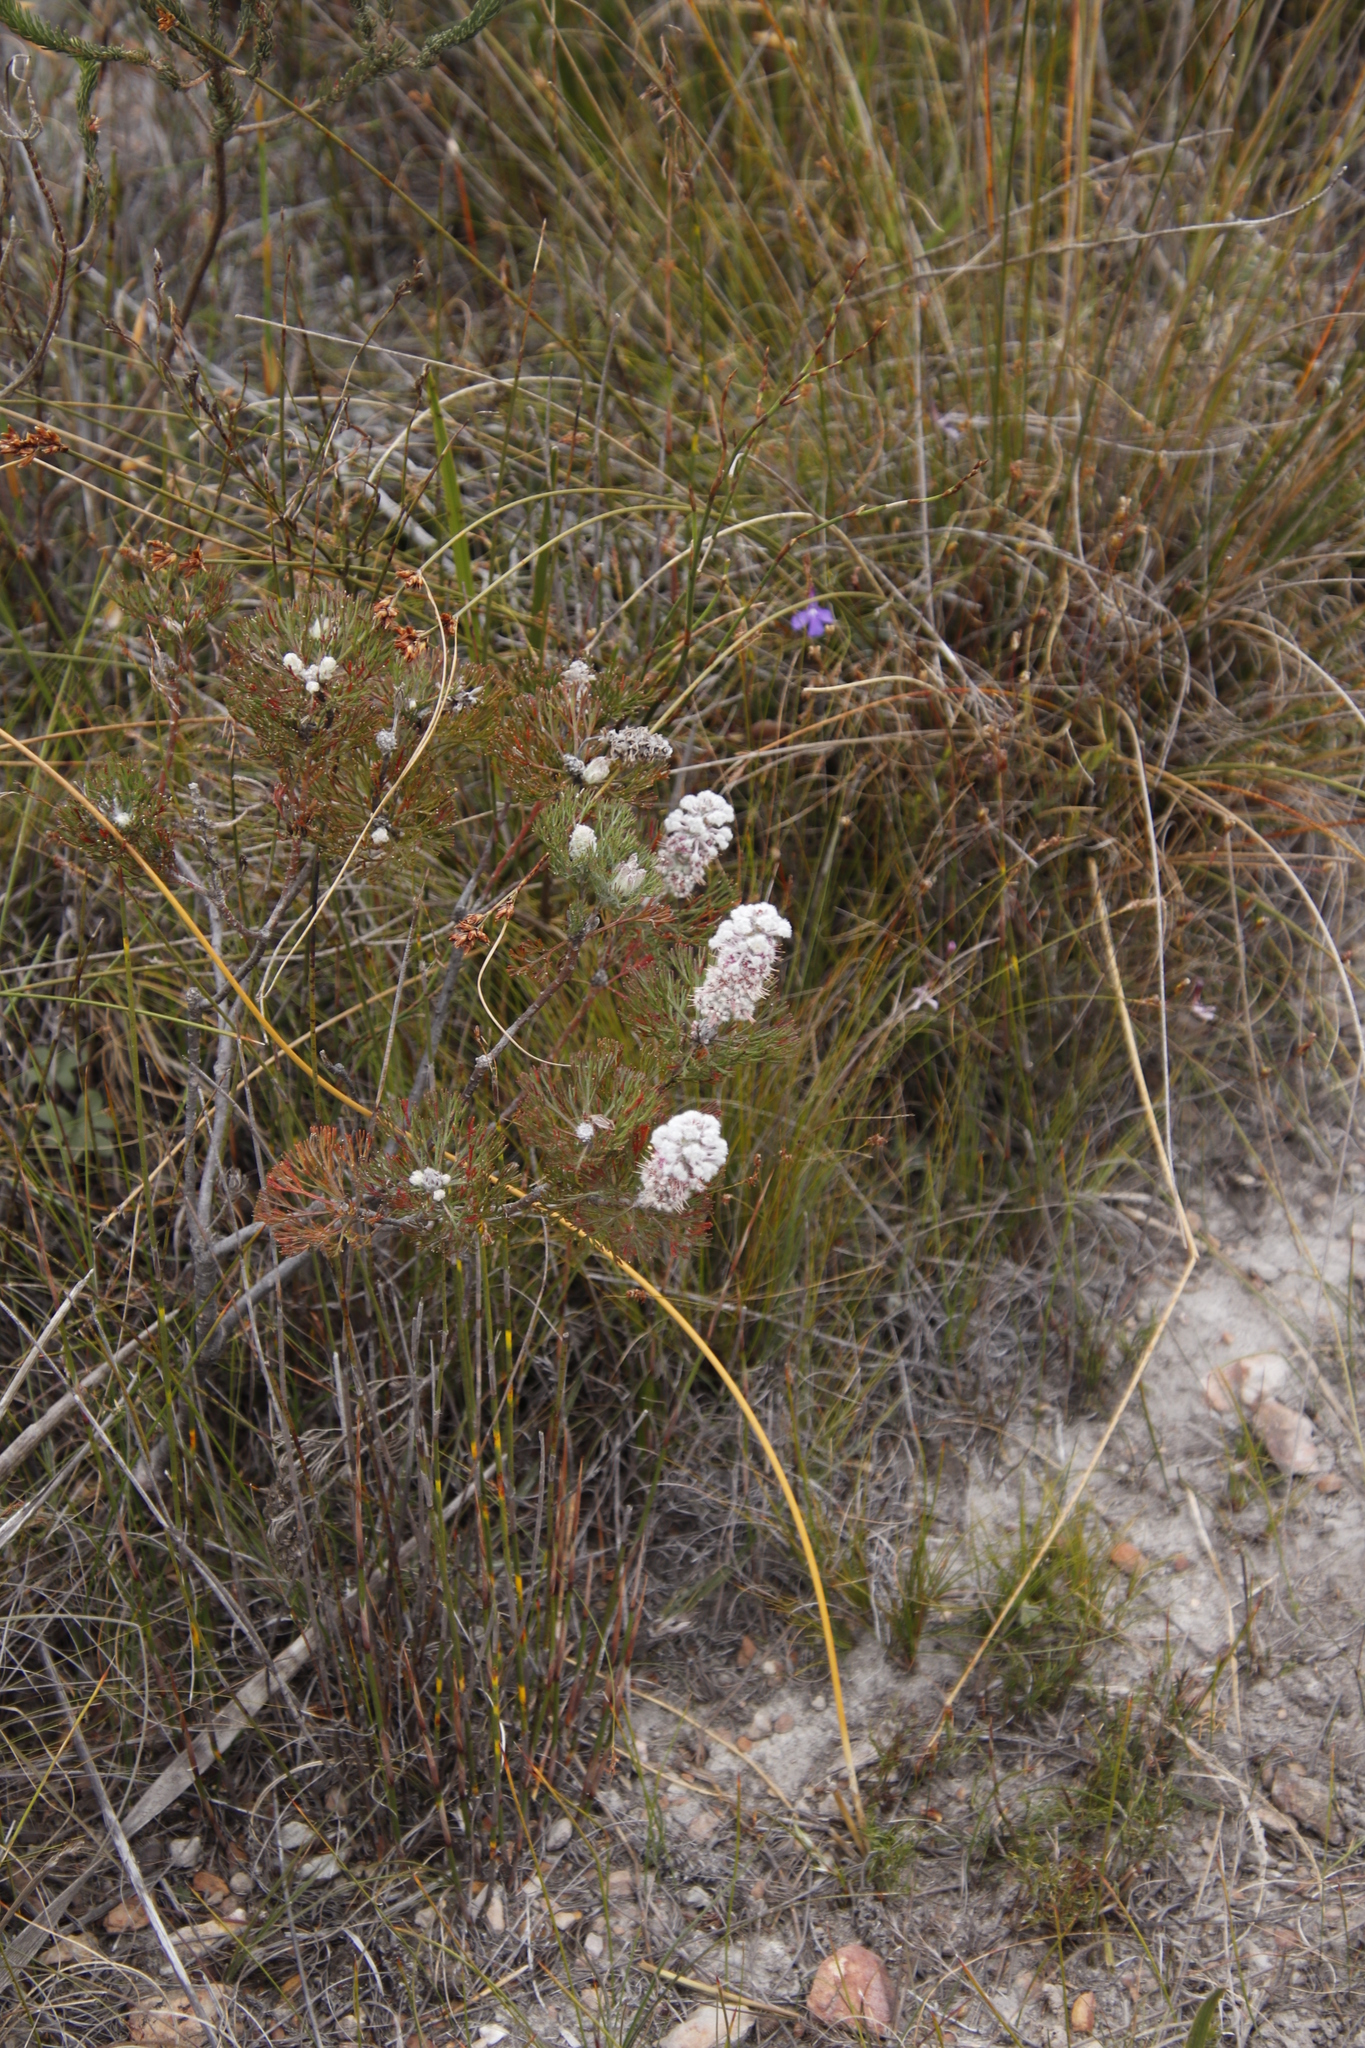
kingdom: Plantae
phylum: Tracheophyta
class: Magnoliopsida
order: Proteales
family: Proteaceae
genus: Paranomus
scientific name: Paranomus abrotanifolius
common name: Bredasdorp sceptre
